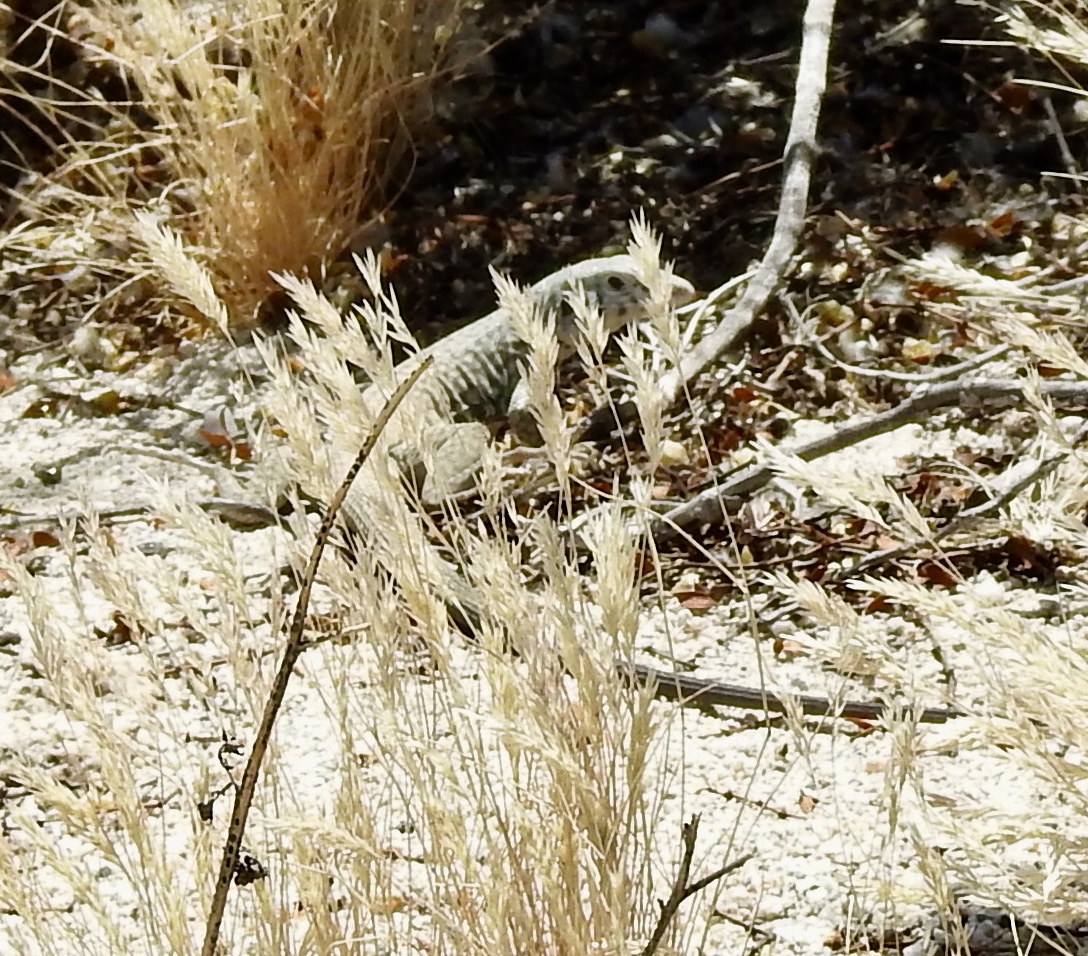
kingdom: Animalia
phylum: Chordata
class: Squamata
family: Teiidae
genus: Aspidoscelis
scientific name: Aspidoscelis tigris
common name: Tiger whiptail
